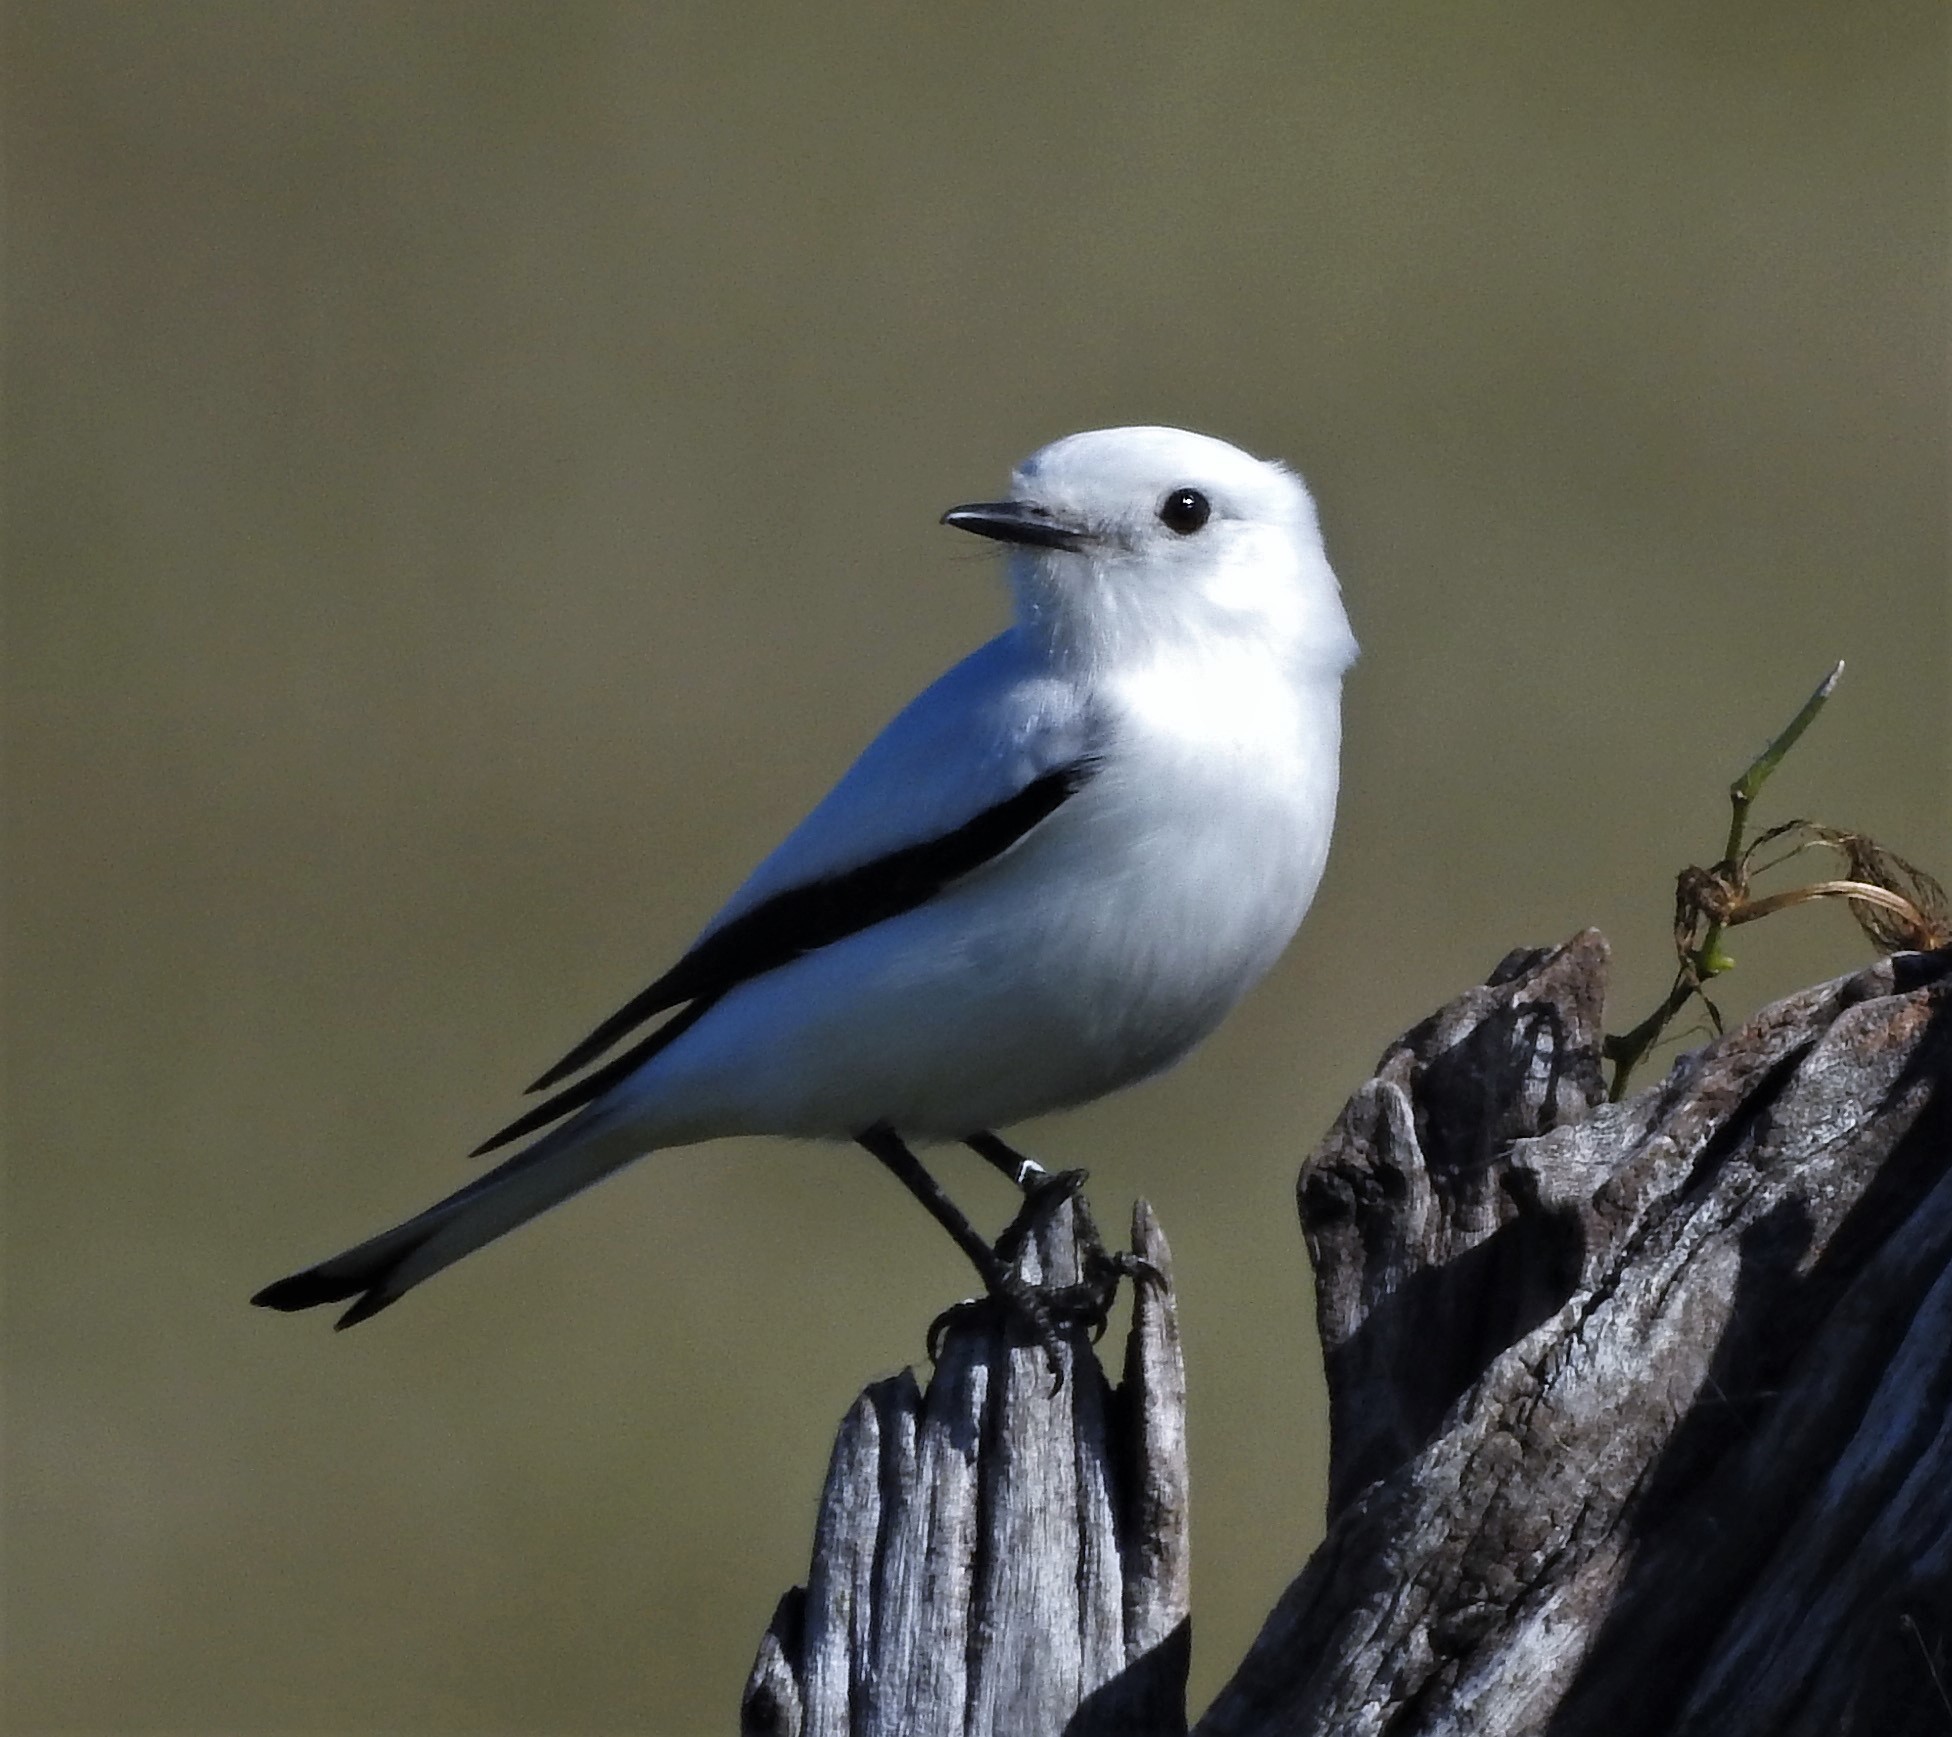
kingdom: Animalia
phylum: Chordata
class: Aves
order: Passeriformes
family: Tyrannidae
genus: Xolmis
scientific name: Xolmis irupero
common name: White monjita
